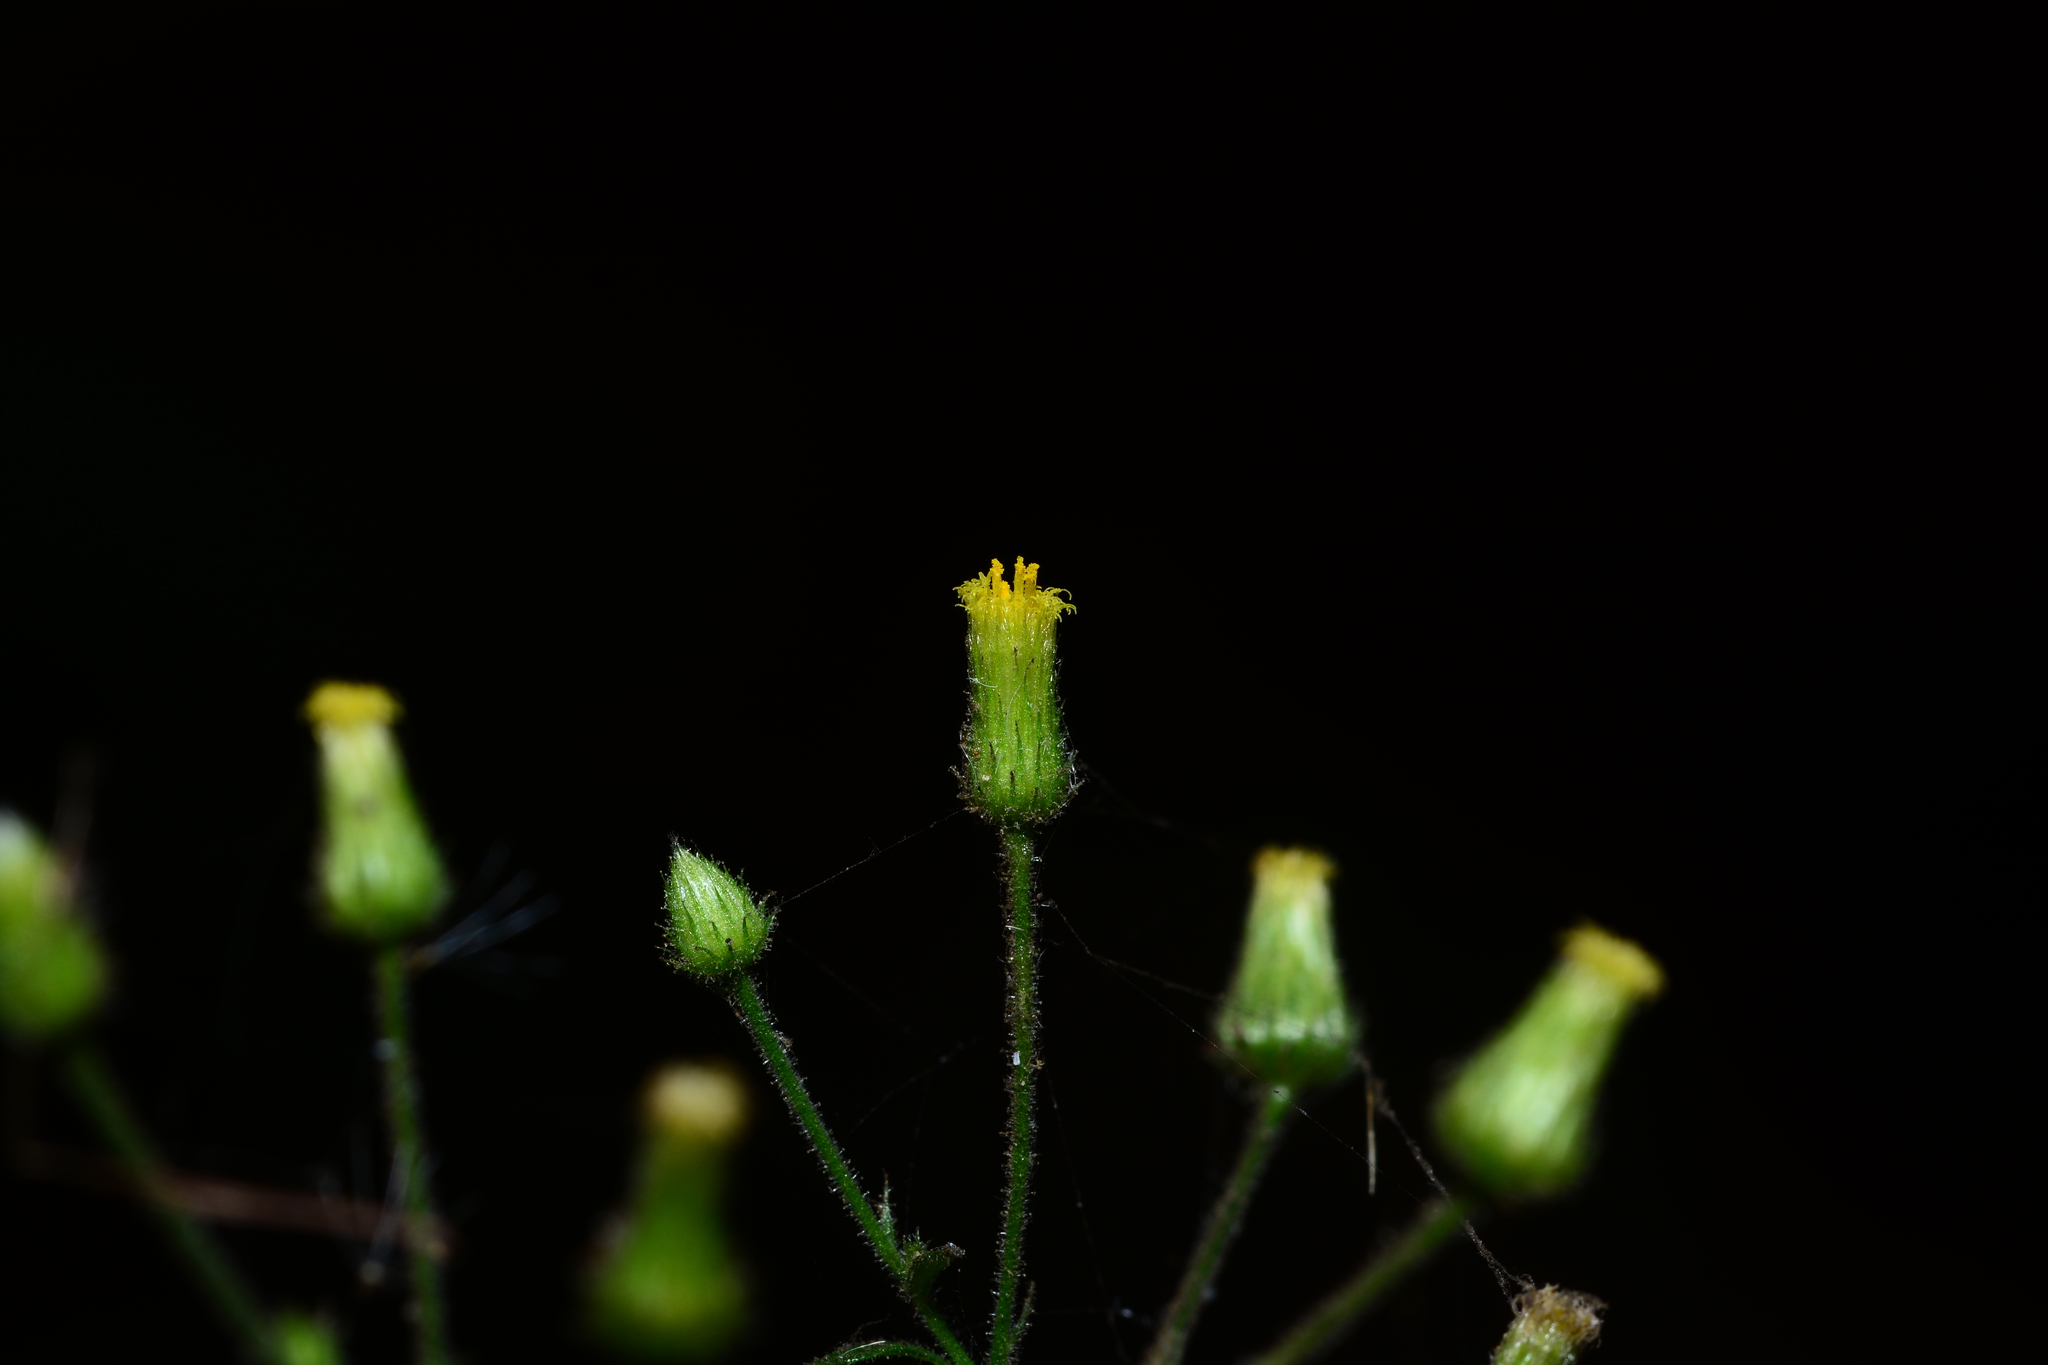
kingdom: Plantae
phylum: Tracheophyta
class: Magnoliopsida
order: Asterales
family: Asteraceae
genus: Pluchea
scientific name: Pluchea paniculata
